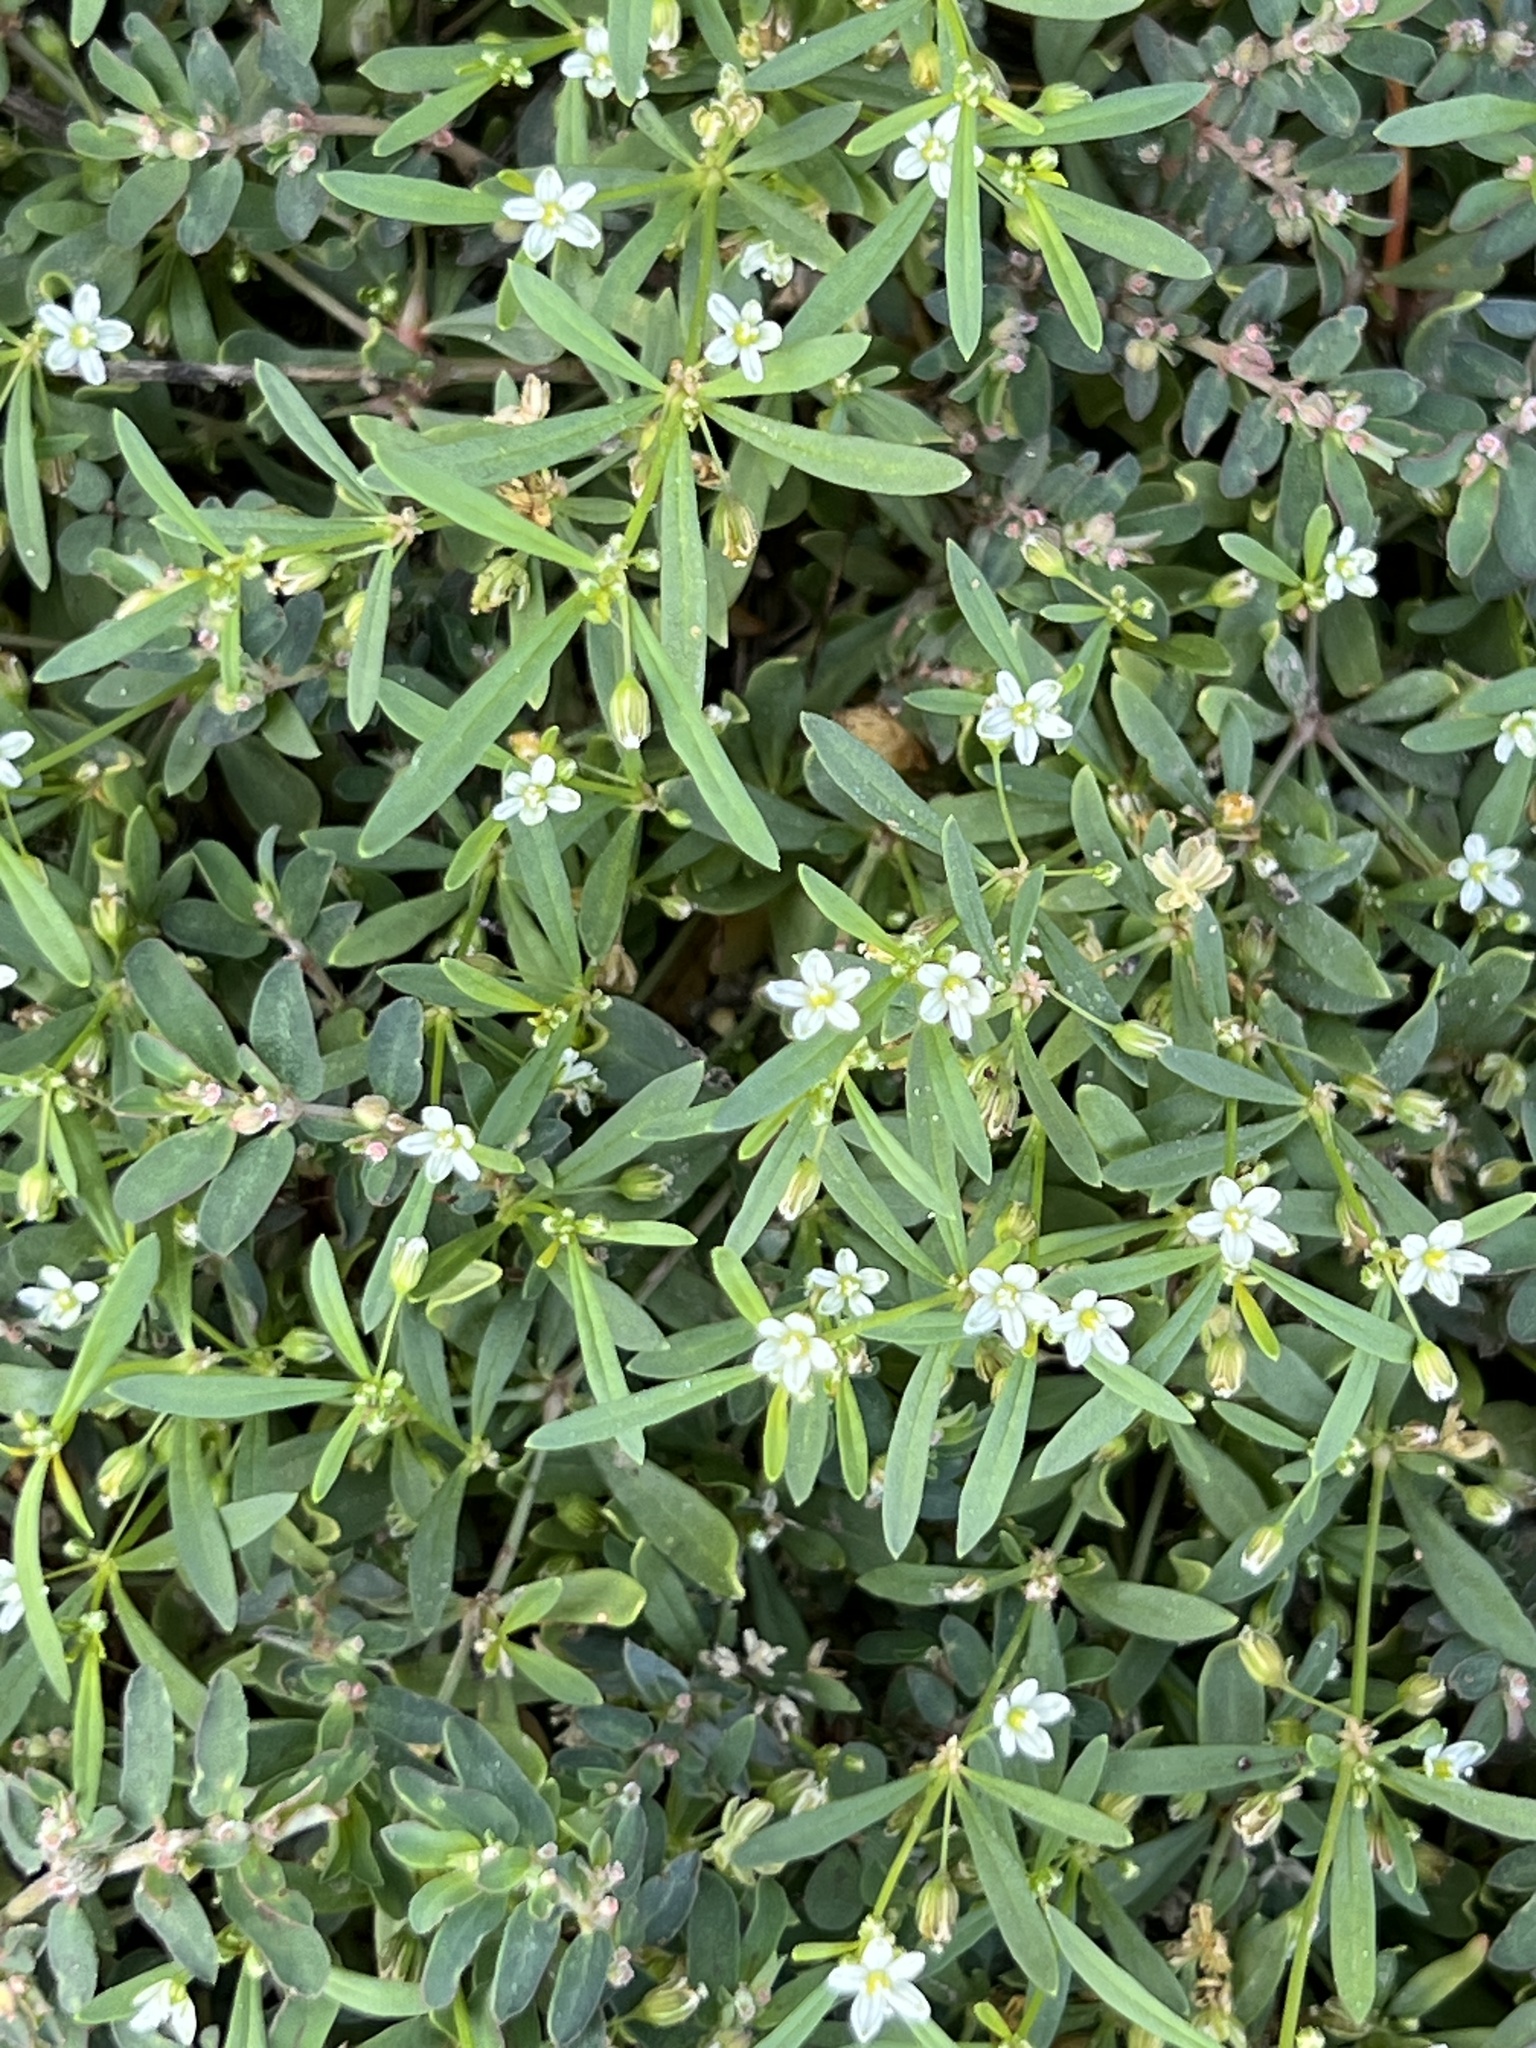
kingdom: Plantae
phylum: Tracheophyta
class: Magnoliopsida
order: Caryophyllales
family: Molluginaceae
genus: Mollugo
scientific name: Mollugo verticillata
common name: Green carpetweed
